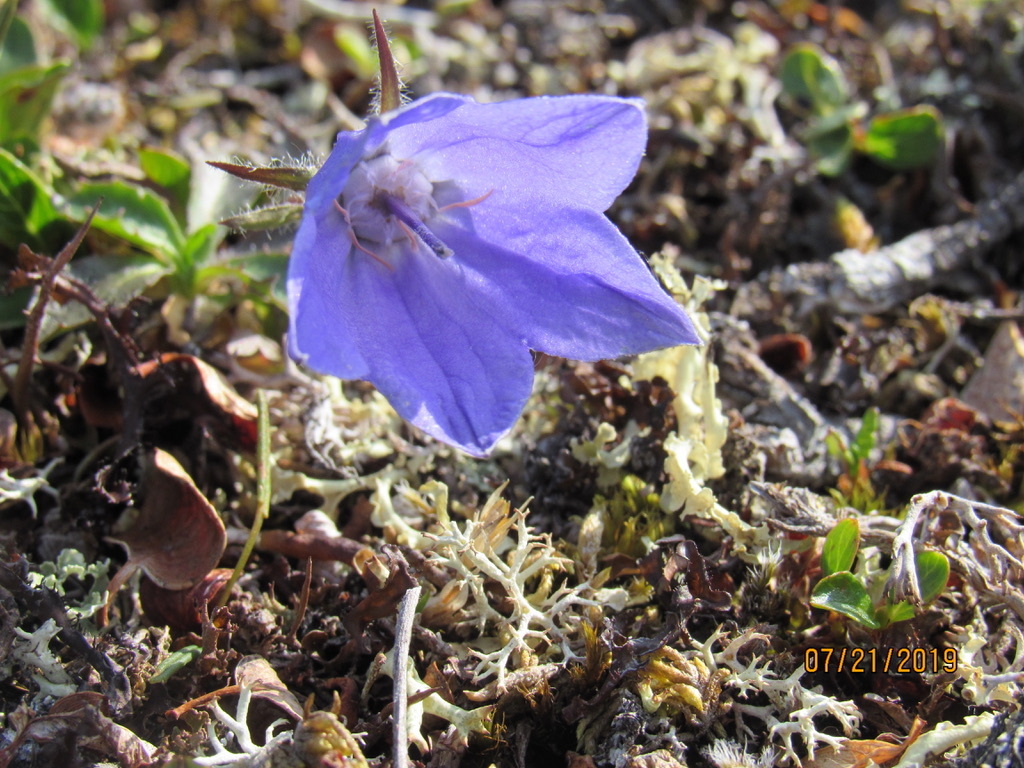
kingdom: Plantae
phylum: Tracheophyta
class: Magnoliopsida
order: Asterales
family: Campanulaceae
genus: Campanula
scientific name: Campanula lasiocarpa
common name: Mountain harebell
